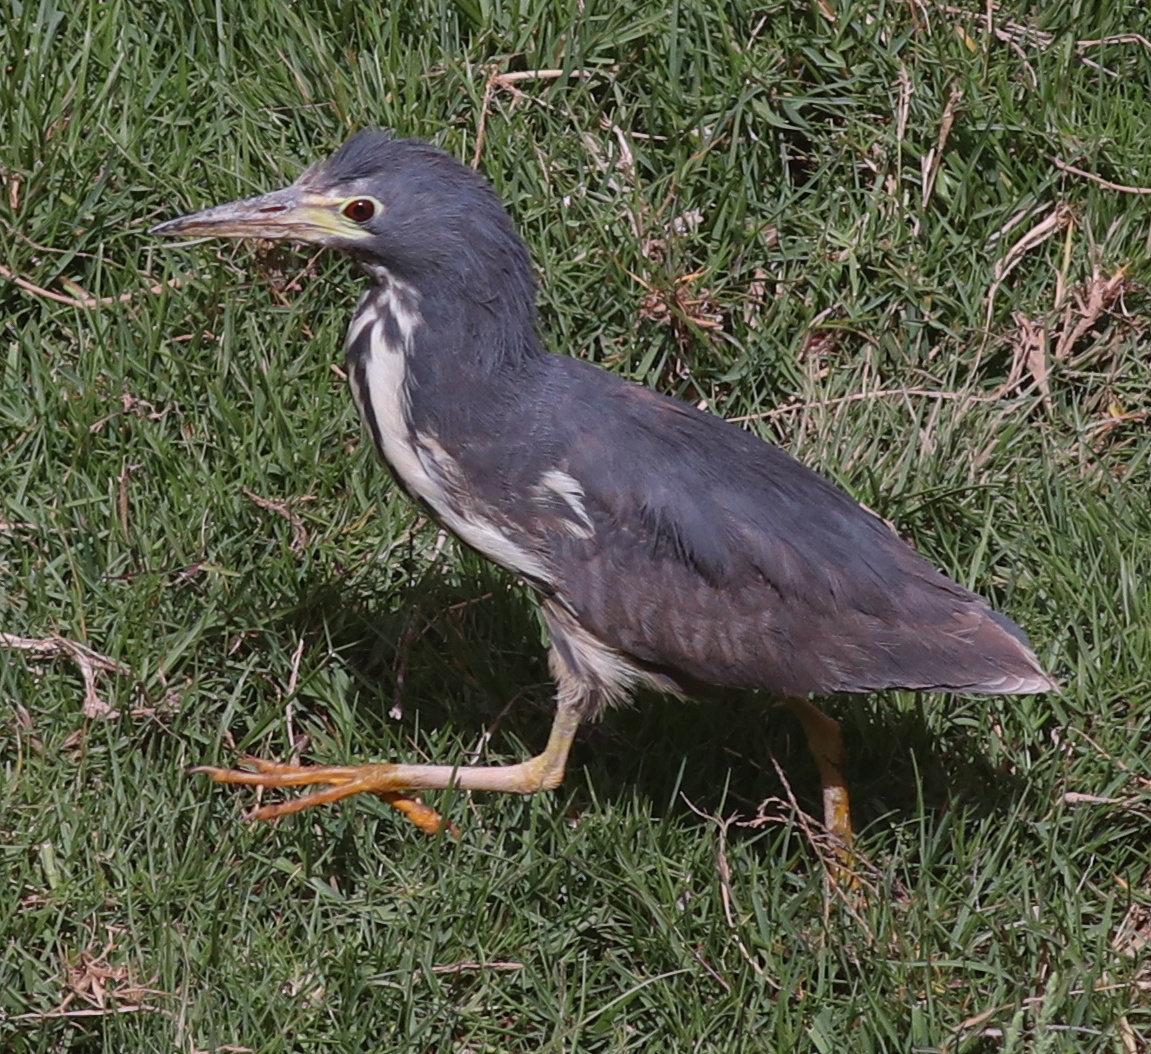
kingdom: Animalia
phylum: Chordata
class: Aves
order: Pelecaniformes
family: Ardeidae
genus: Ixobrychus
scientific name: Ixobrychus sturmii
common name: Dwarf bittern
